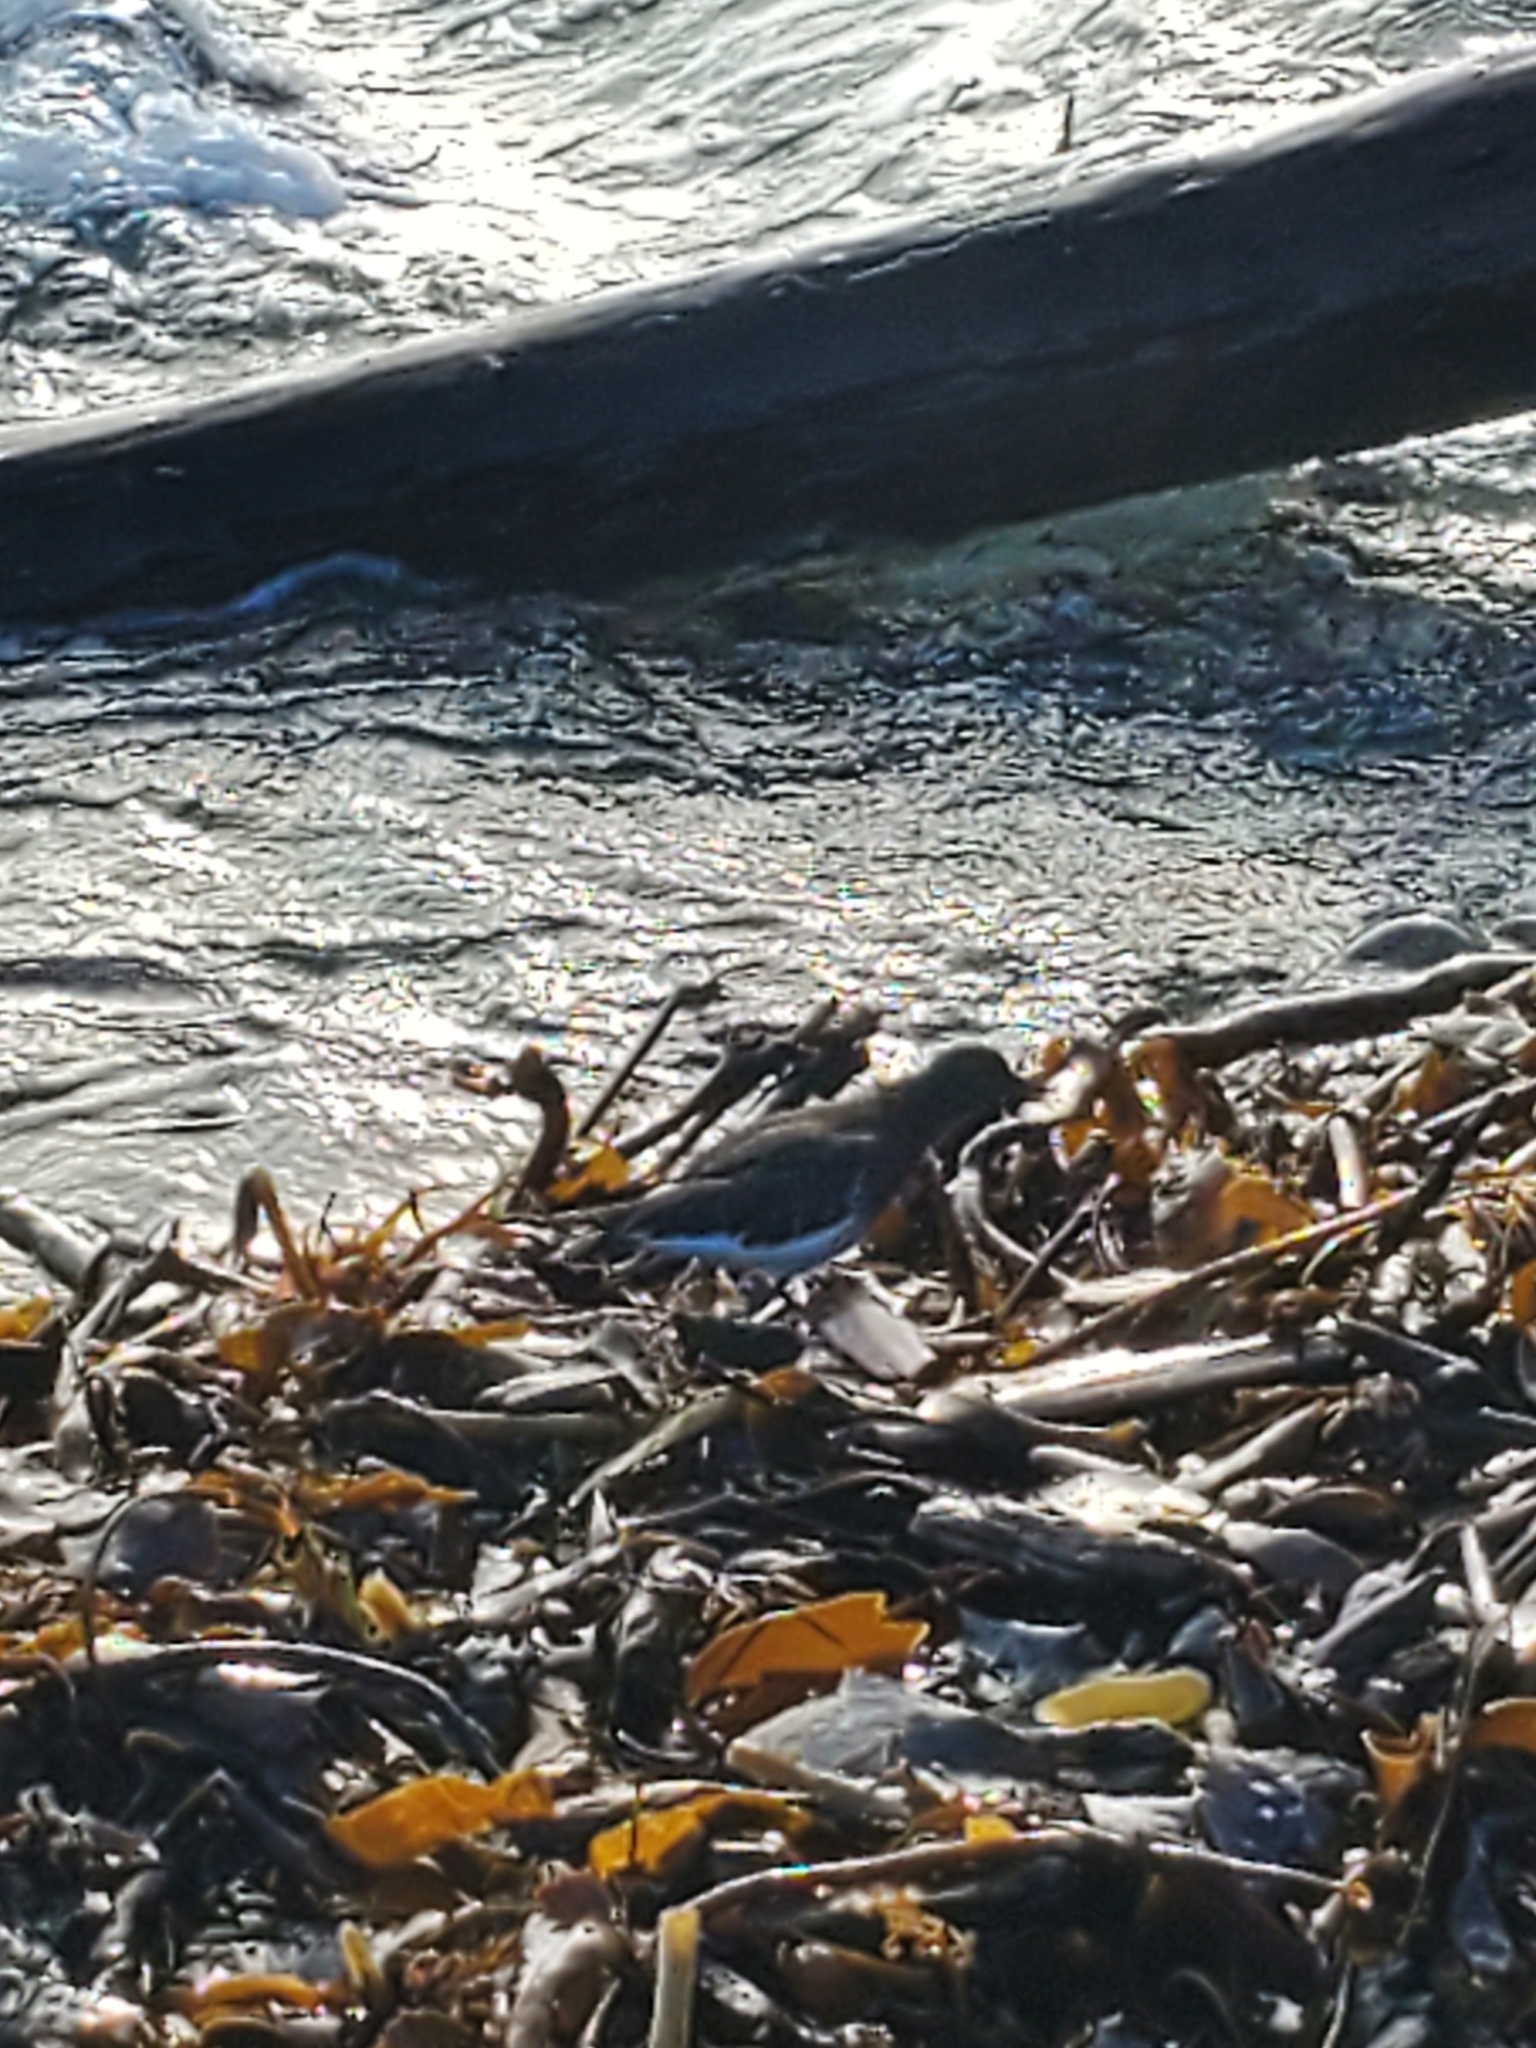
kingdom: Animalia
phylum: Chordata
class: Aves
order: Charadriiformes
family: Scolopacidae
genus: Arenaria
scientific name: Arenaria melanocephala
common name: Black turnstone
